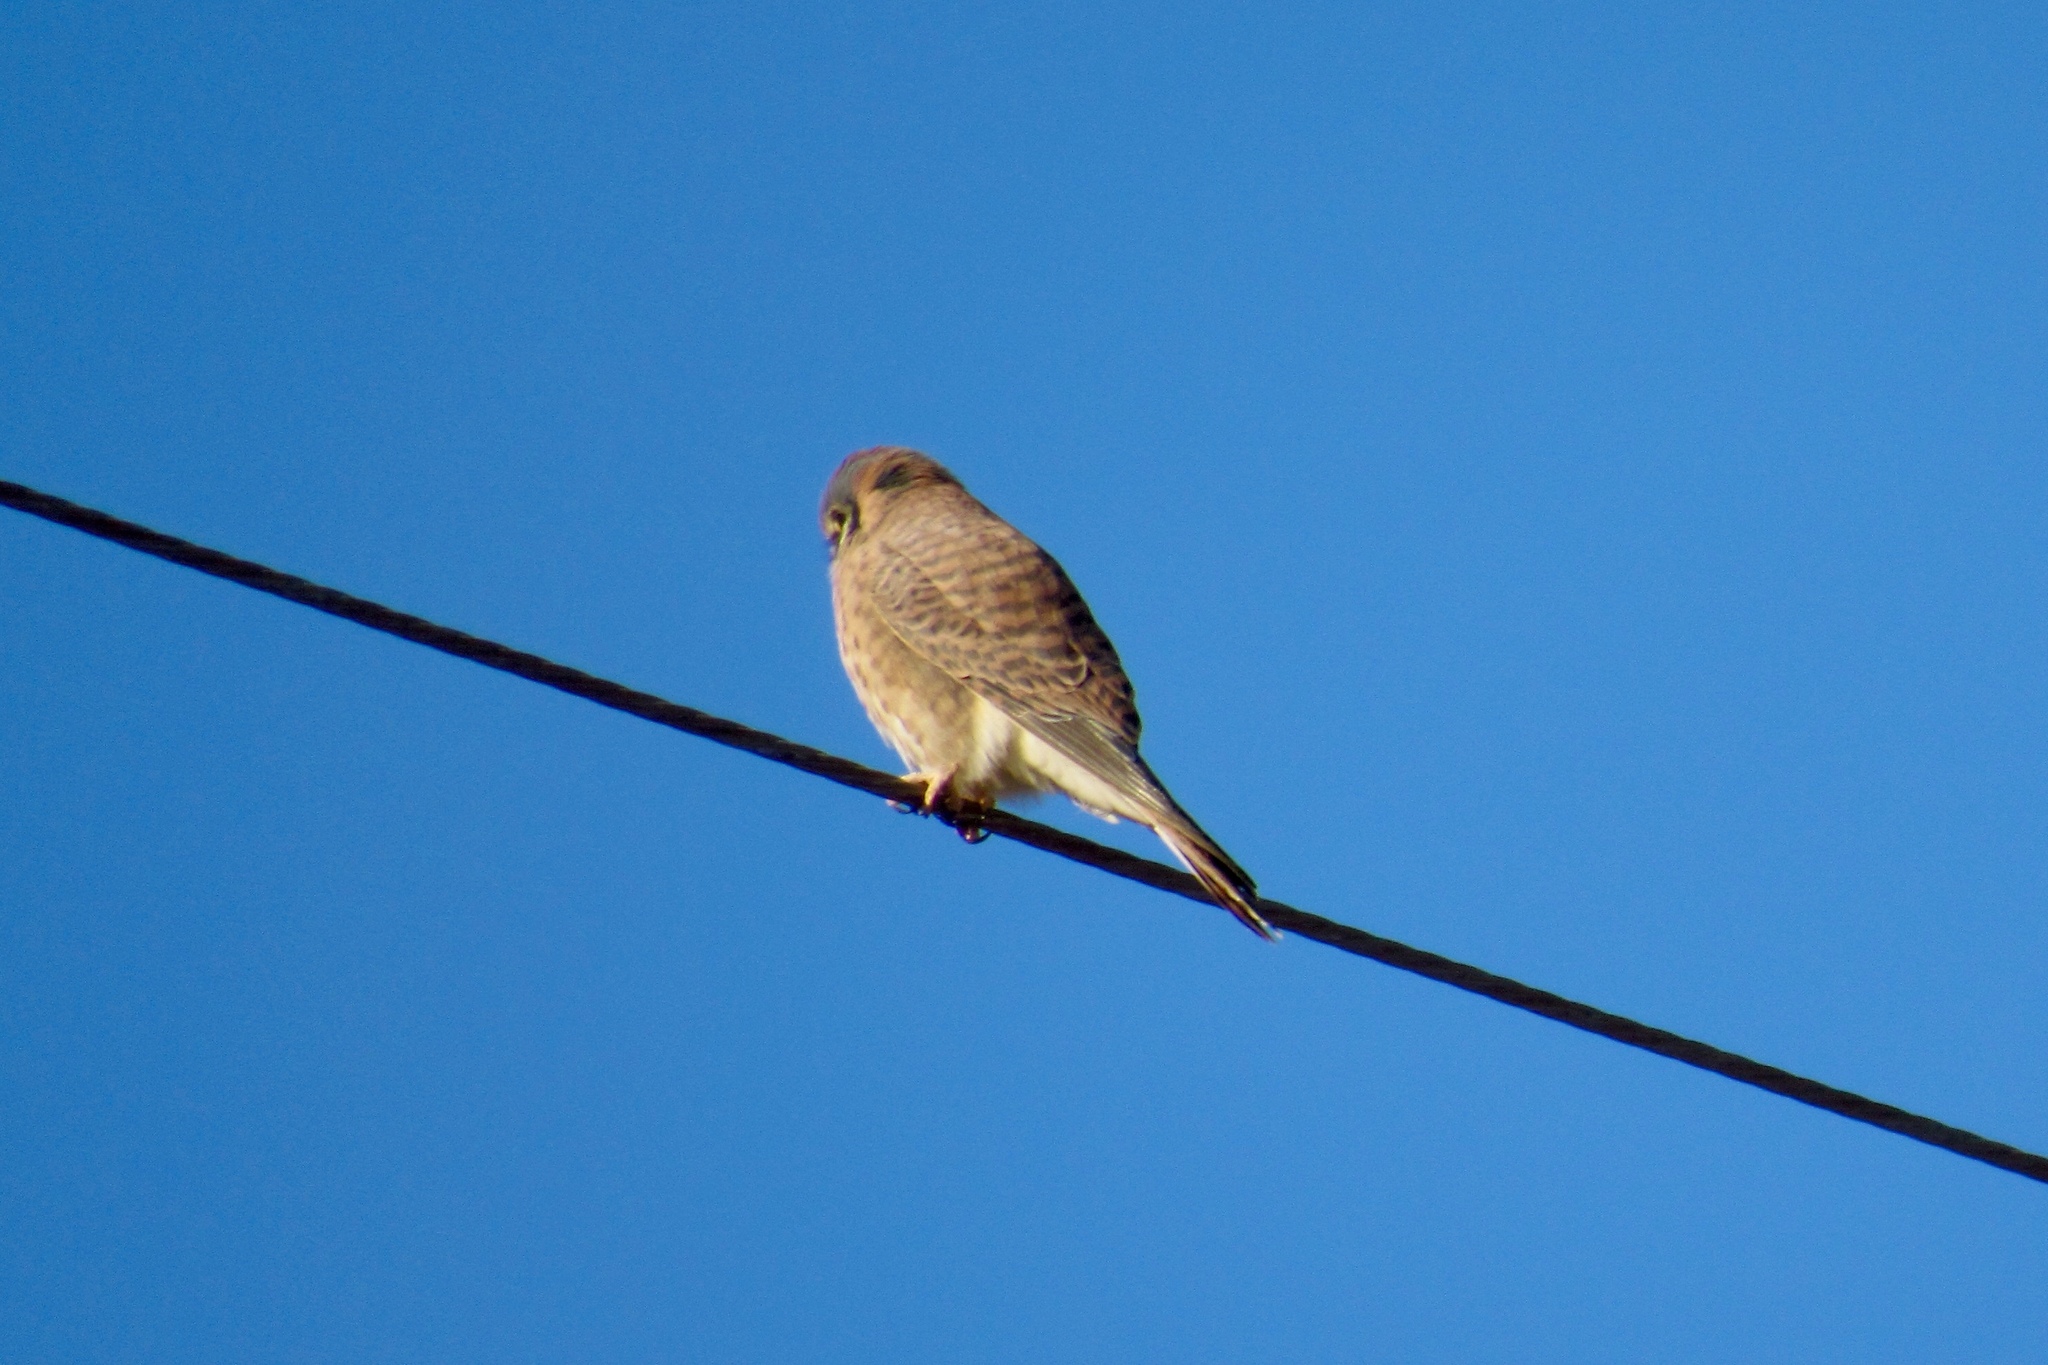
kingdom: Animalia
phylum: Chordata
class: Aves
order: Falconiformes
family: Falconidae
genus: Falco
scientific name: Falco sparverius
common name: American kestrel
